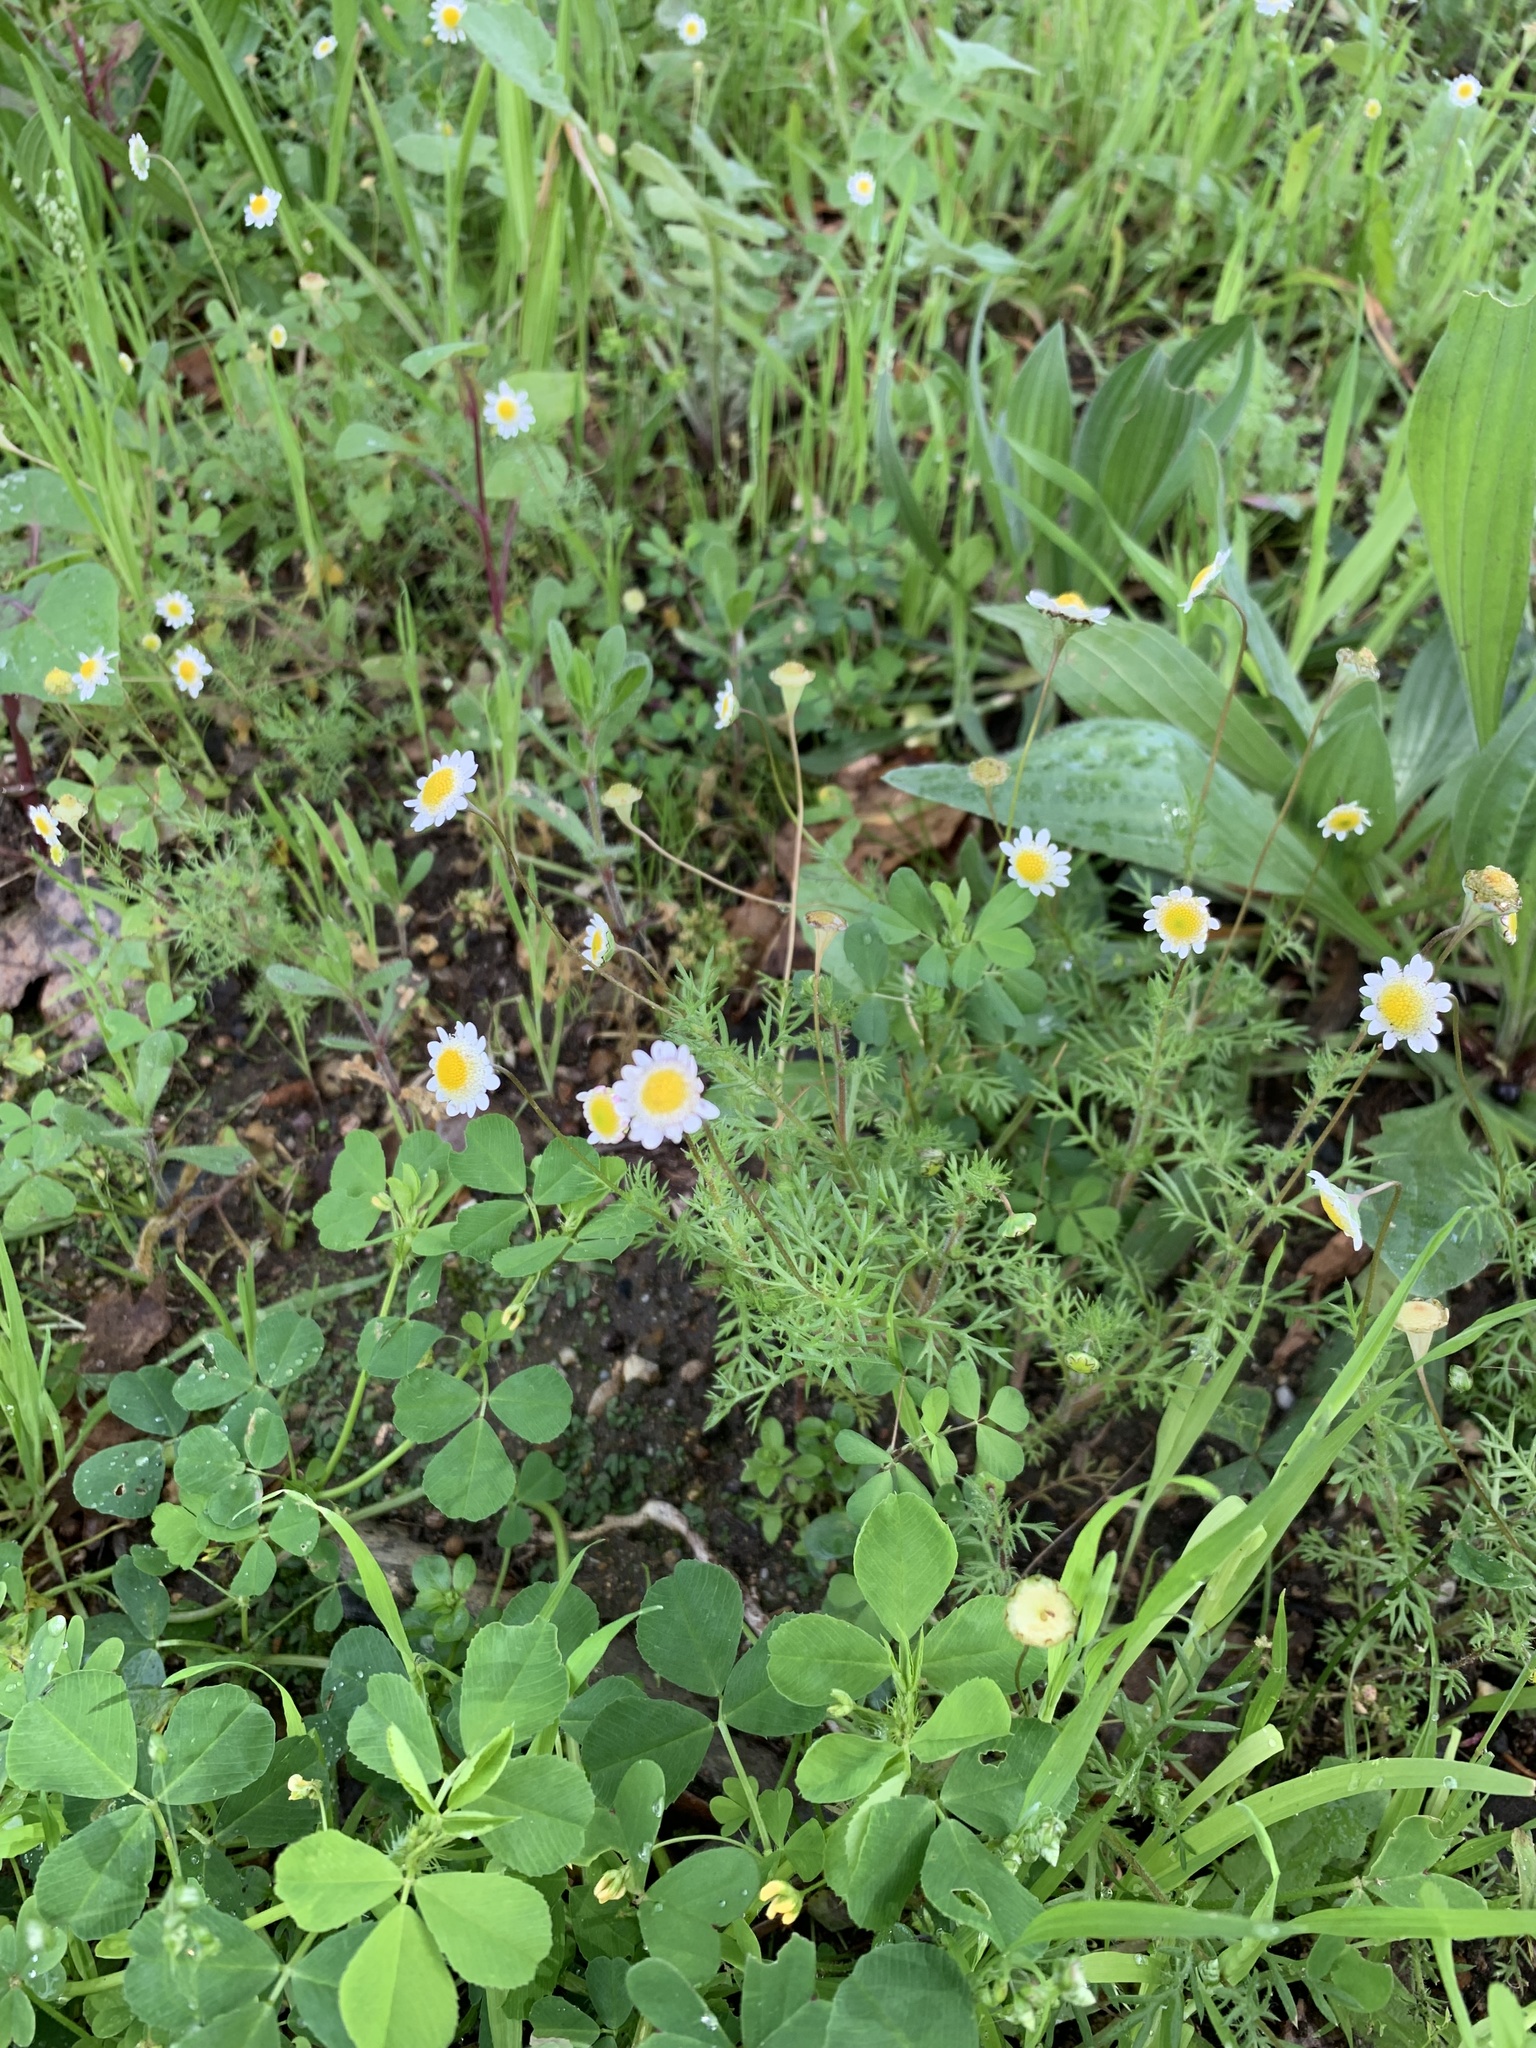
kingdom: Plantae
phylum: Tracheophyta
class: Magnoliopsida
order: Asterales
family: Asteraceae
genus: Cotula
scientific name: Cotula turbinata
